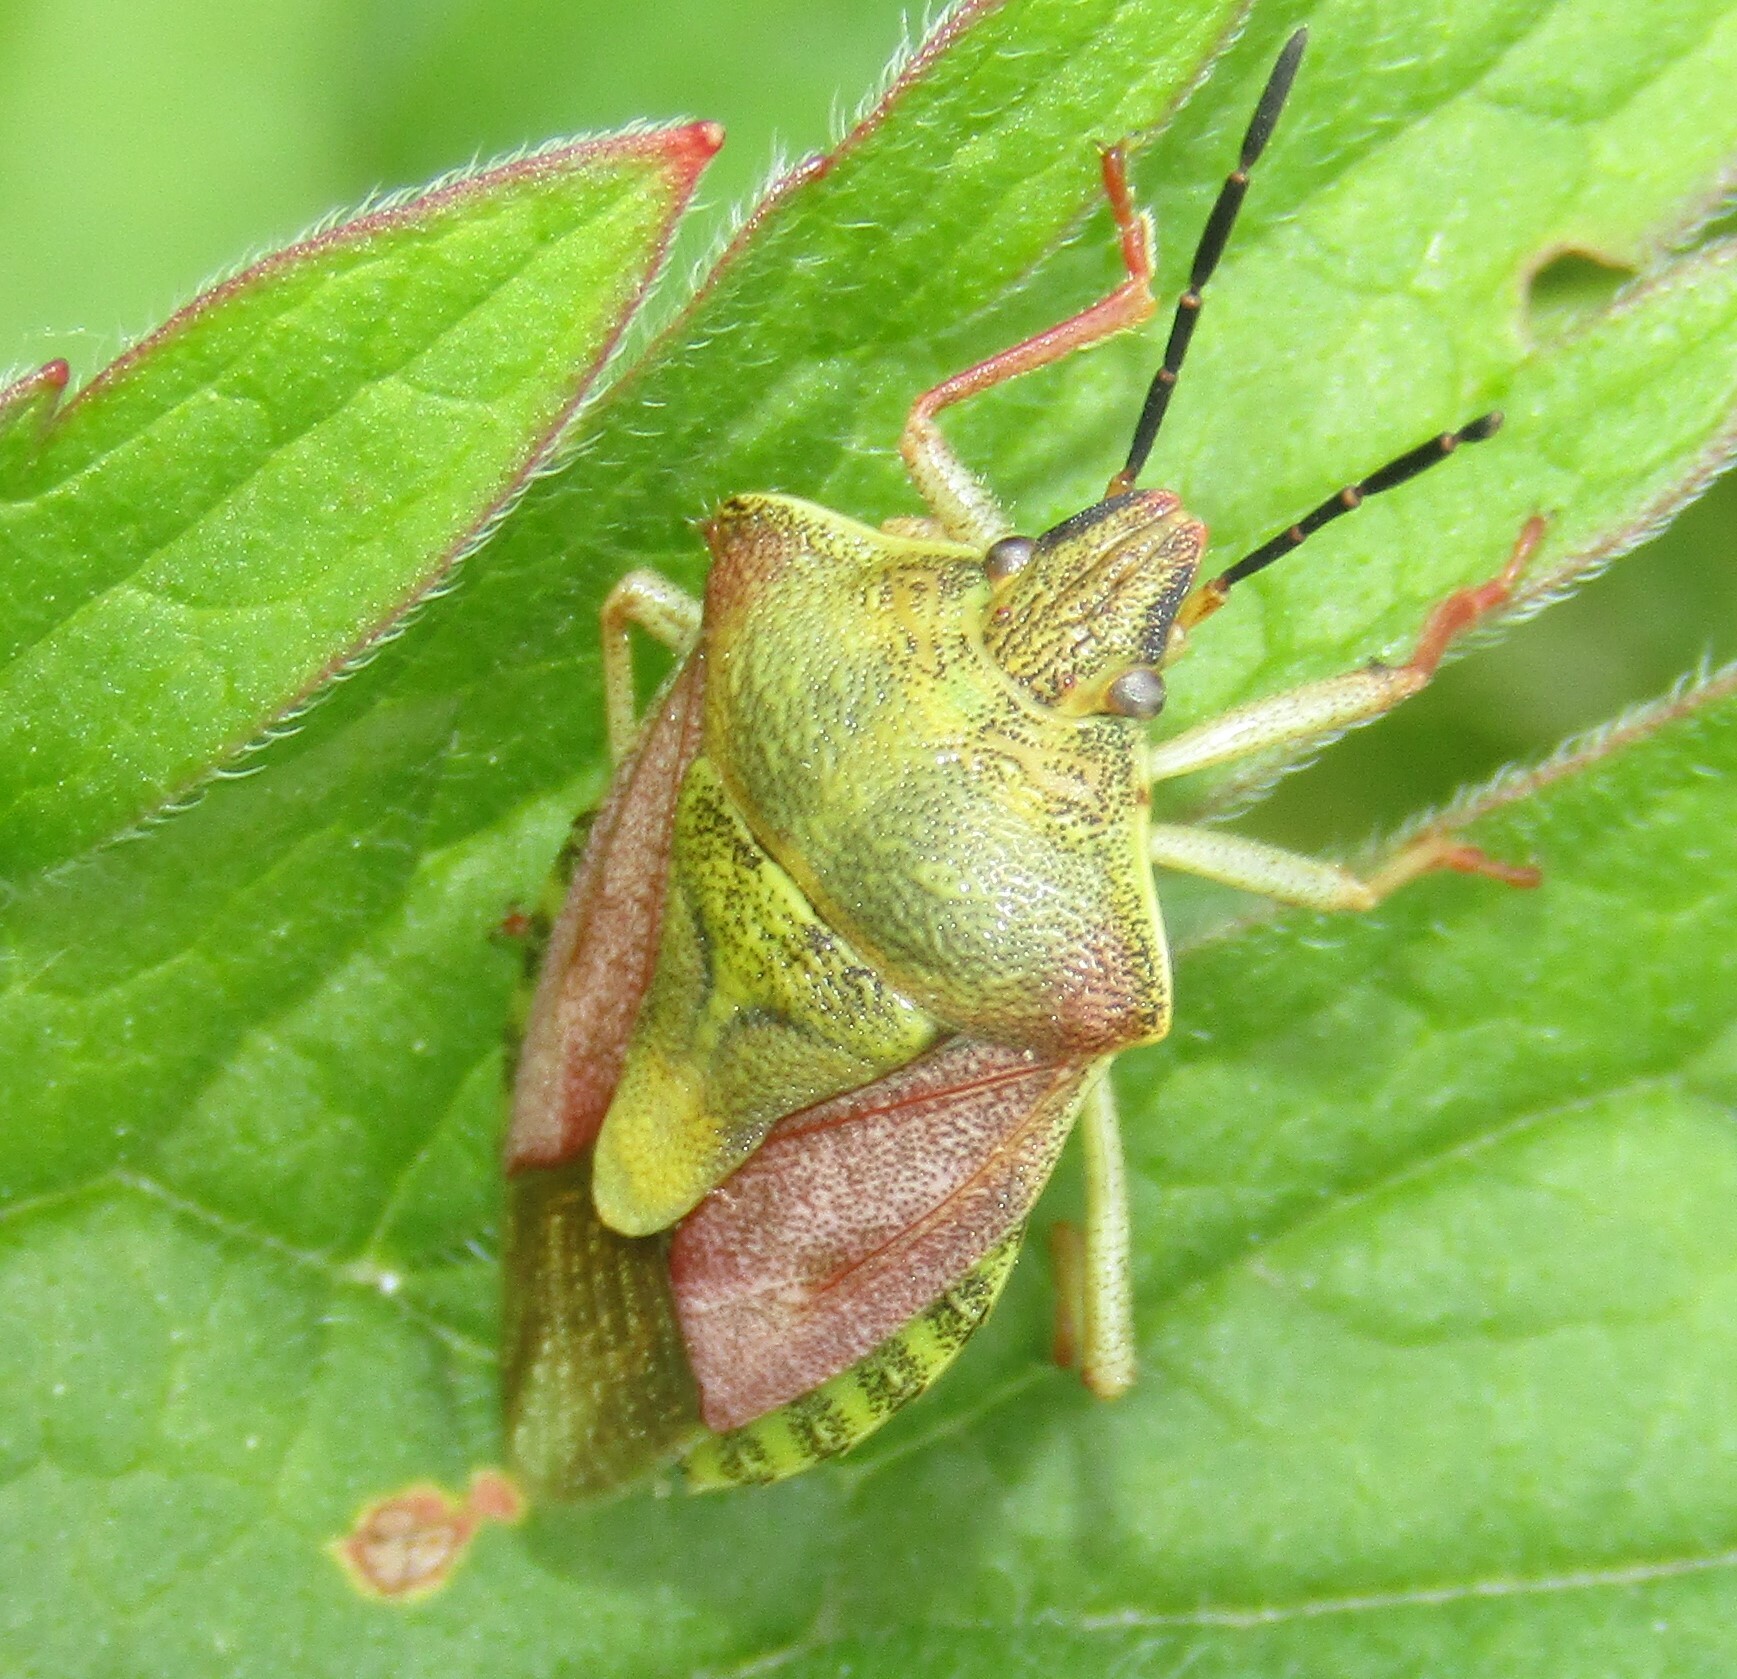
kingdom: Animalia
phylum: Arthropoda
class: Insecta
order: Hemiptera
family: Pentatomidae
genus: Carpocoris
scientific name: Carpocoris purpureipennis
